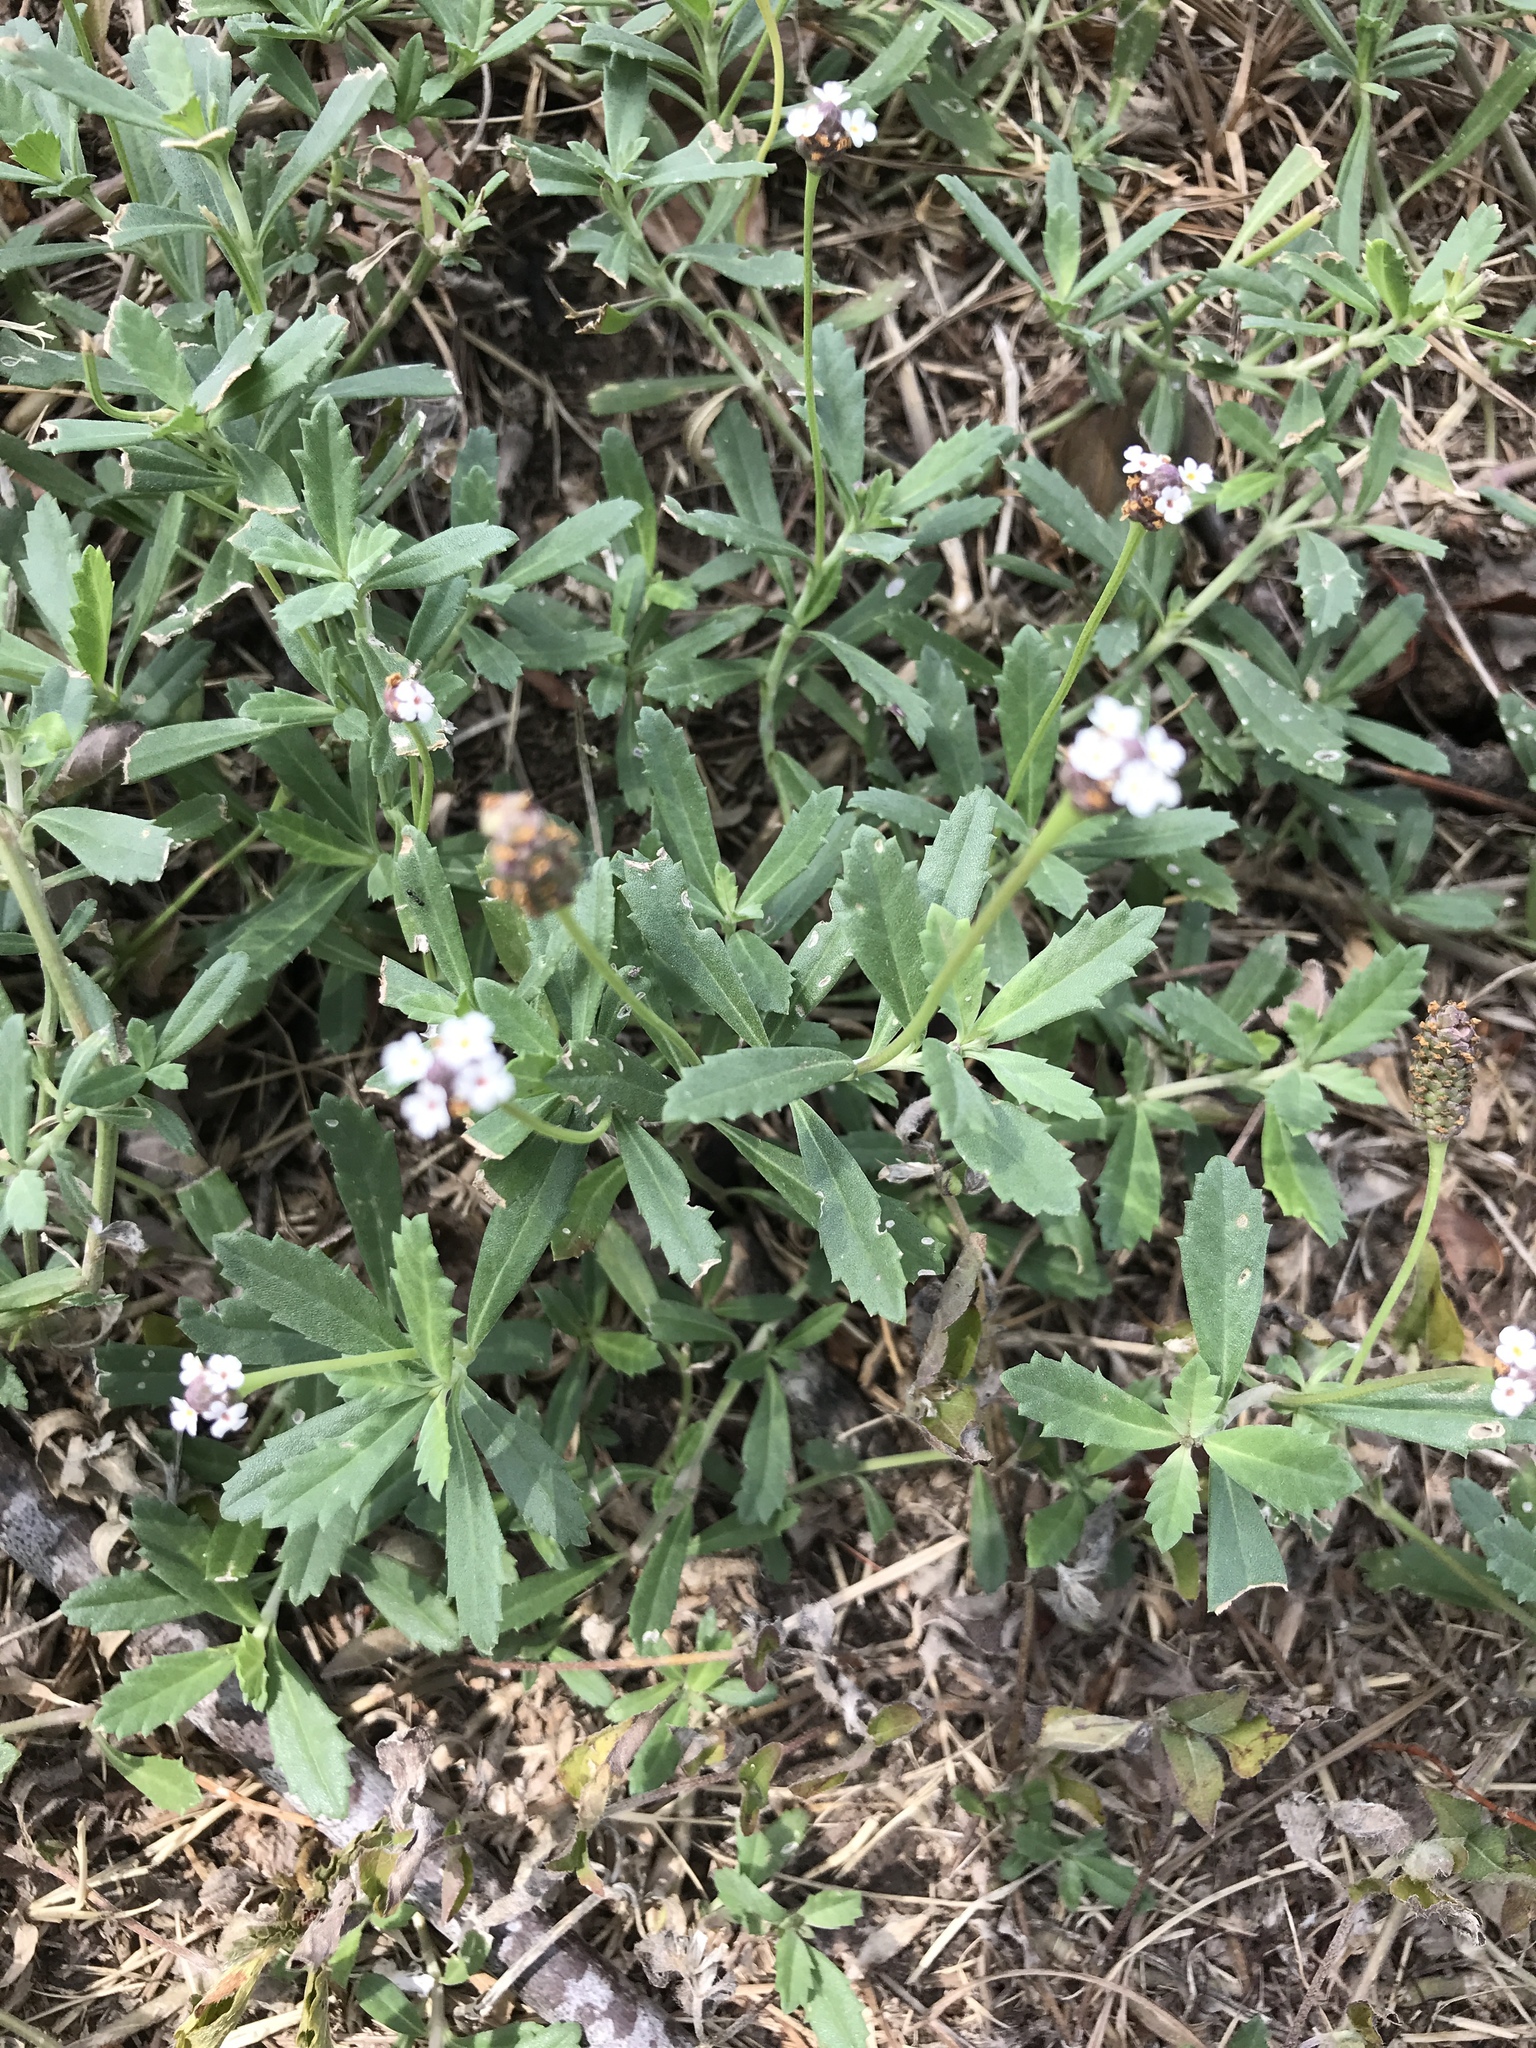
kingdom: Plantae
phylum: Tracheophyta
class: Magnoliopsida
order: Lamiales
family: Verbenaceae
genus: Phyla
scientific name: Phyla nodiflora
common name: Frogfruit
